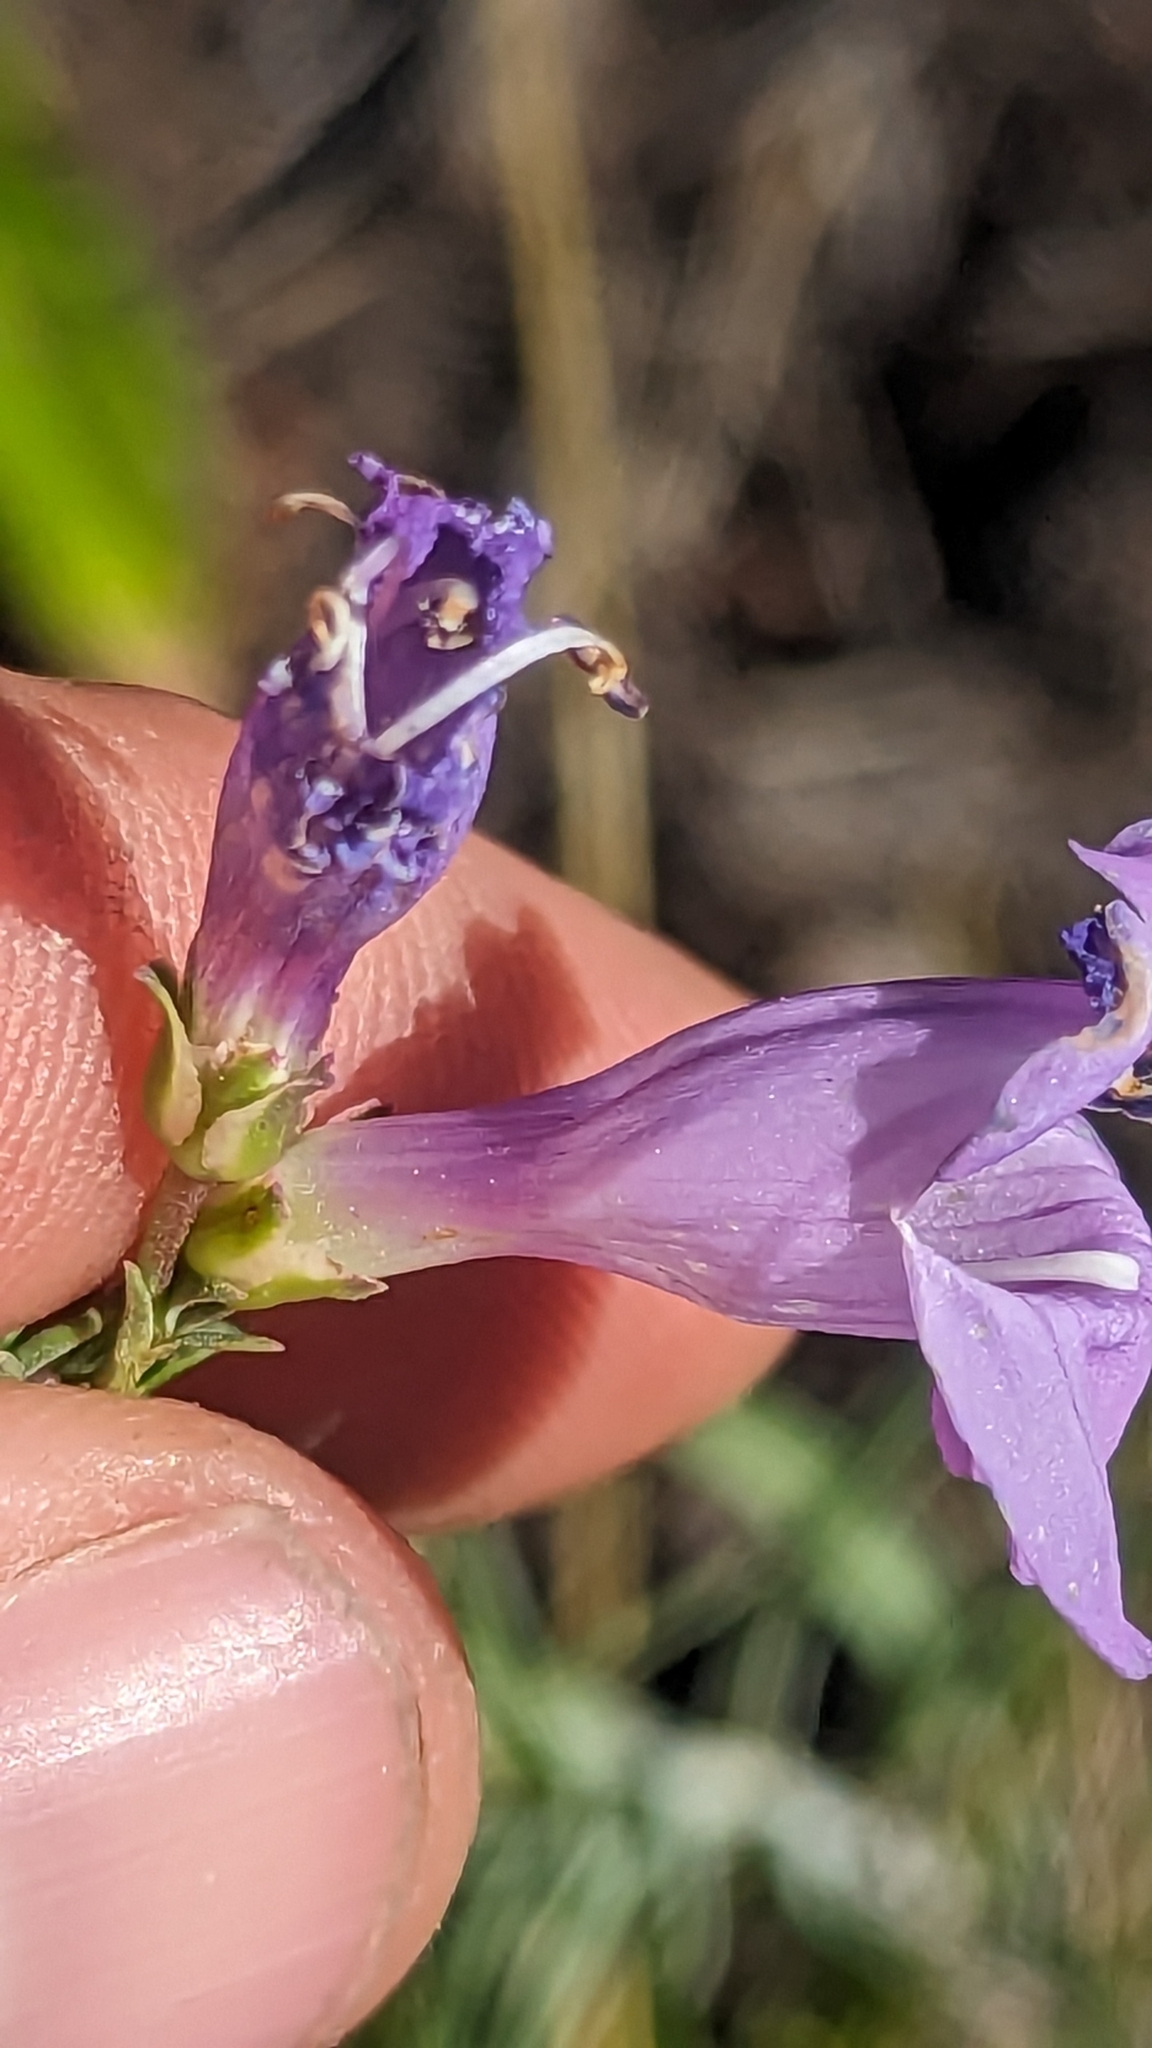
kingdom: Plantae
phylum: Tracheophyta
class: Magnoliopsida
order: Lamiales
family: Plantaginaceae
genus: Penstemon
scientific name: Penstemon pseudoputus
